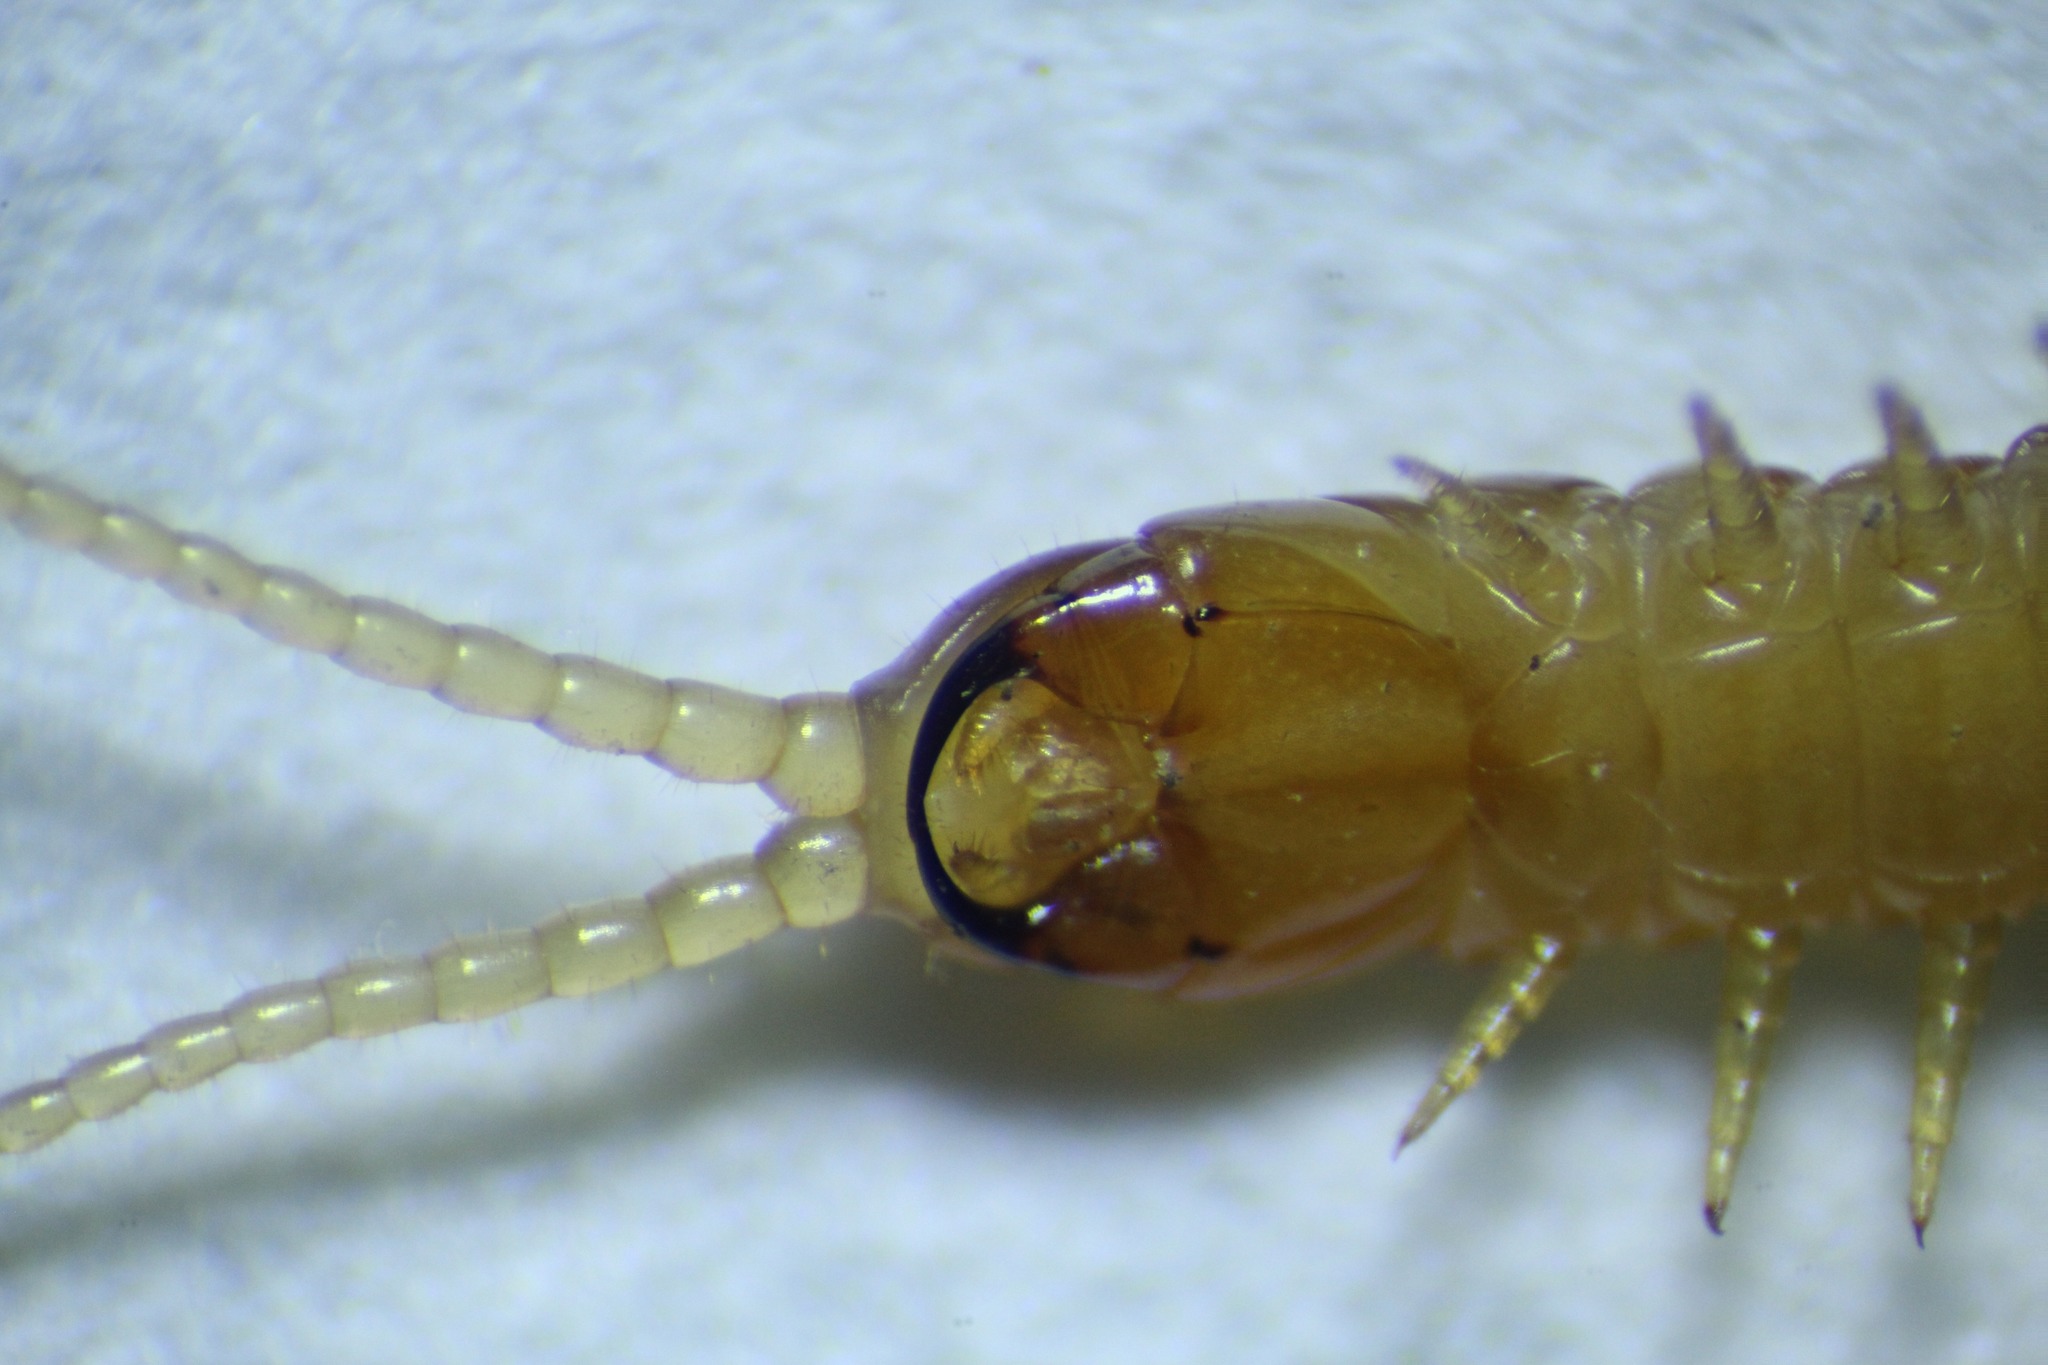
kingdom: Animalia
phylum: Arthropoda
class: Chilopoda
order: Geophilomorpha
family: Geophilidae
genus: Stenotaenia
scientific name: Stenotaenia linearis
